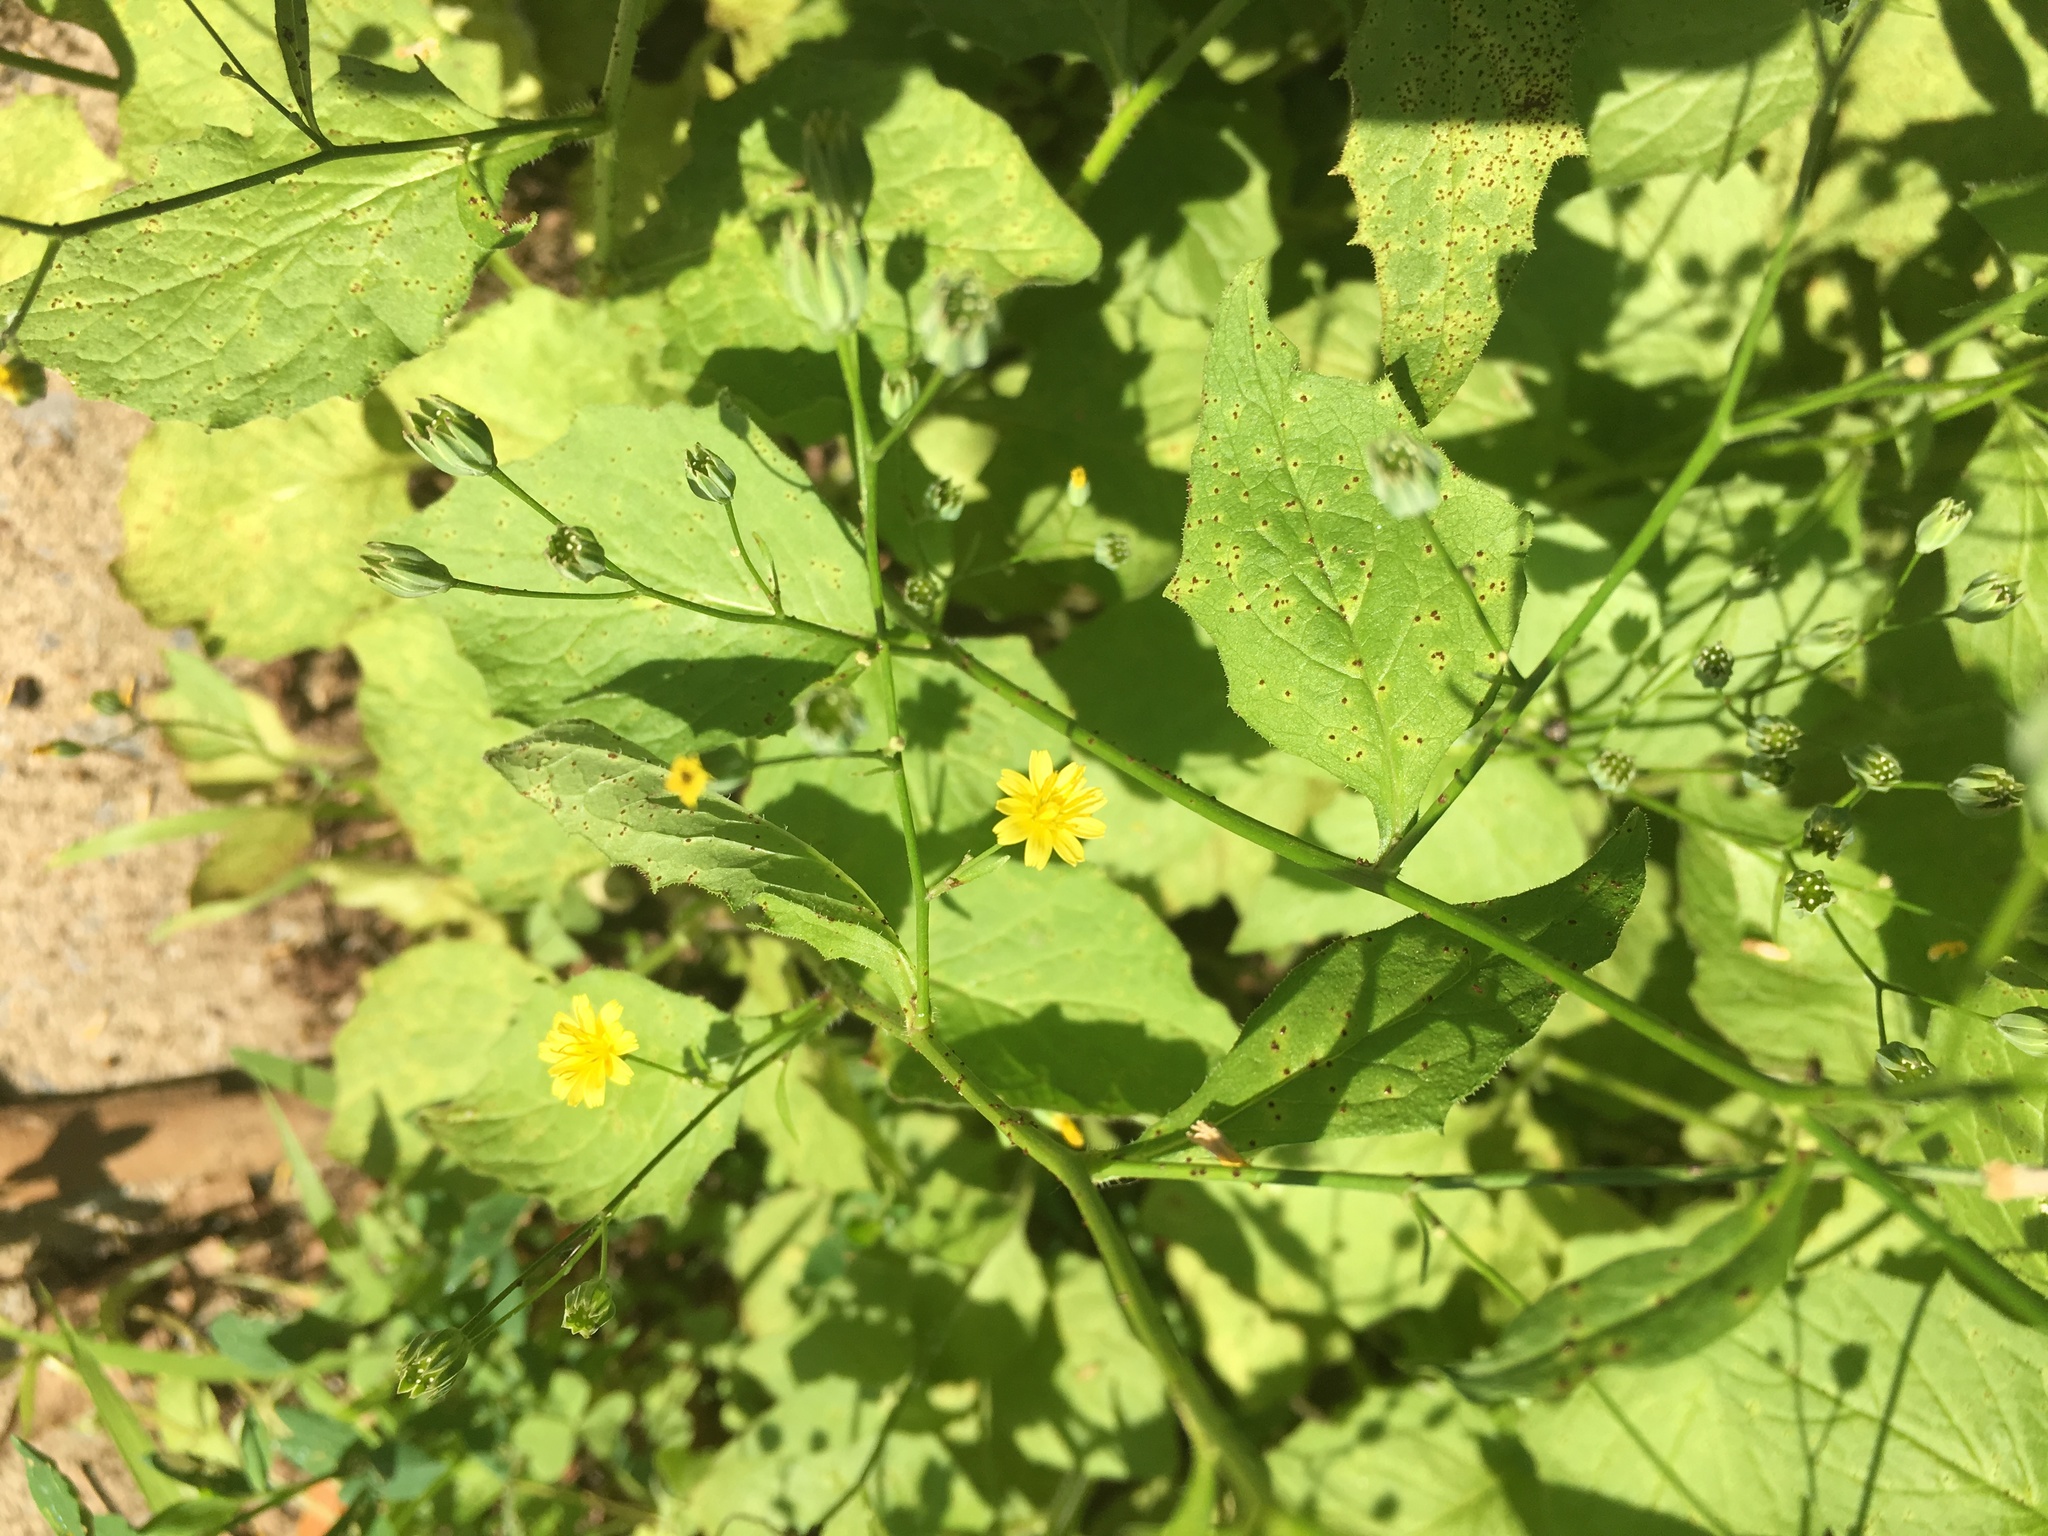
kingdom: Plantae
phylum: Tracheophyta
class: Magnoliopsida
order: Asterales
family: Asteraceae
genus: Lapsana
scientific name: Lapsana communis
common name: Nipplewort
